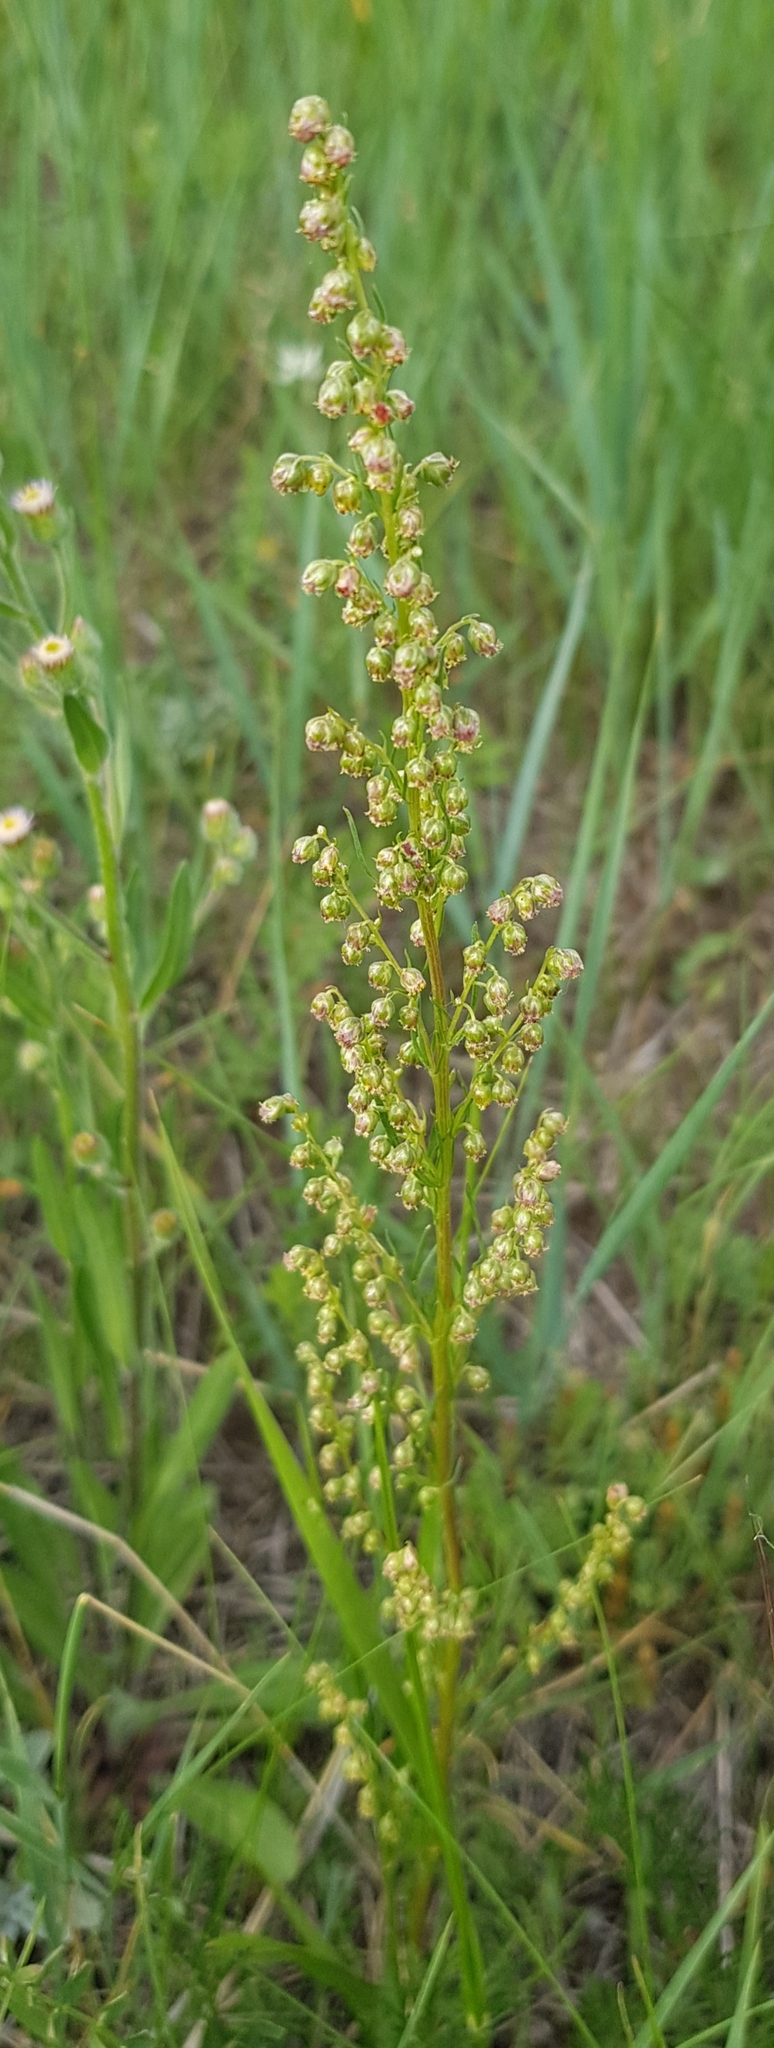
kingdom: Plantae
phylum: Tracheophyta
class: Magnoliopsida
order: Asterales
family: Asteraceae
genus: Artemisia
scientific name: Artemisia pubescens
